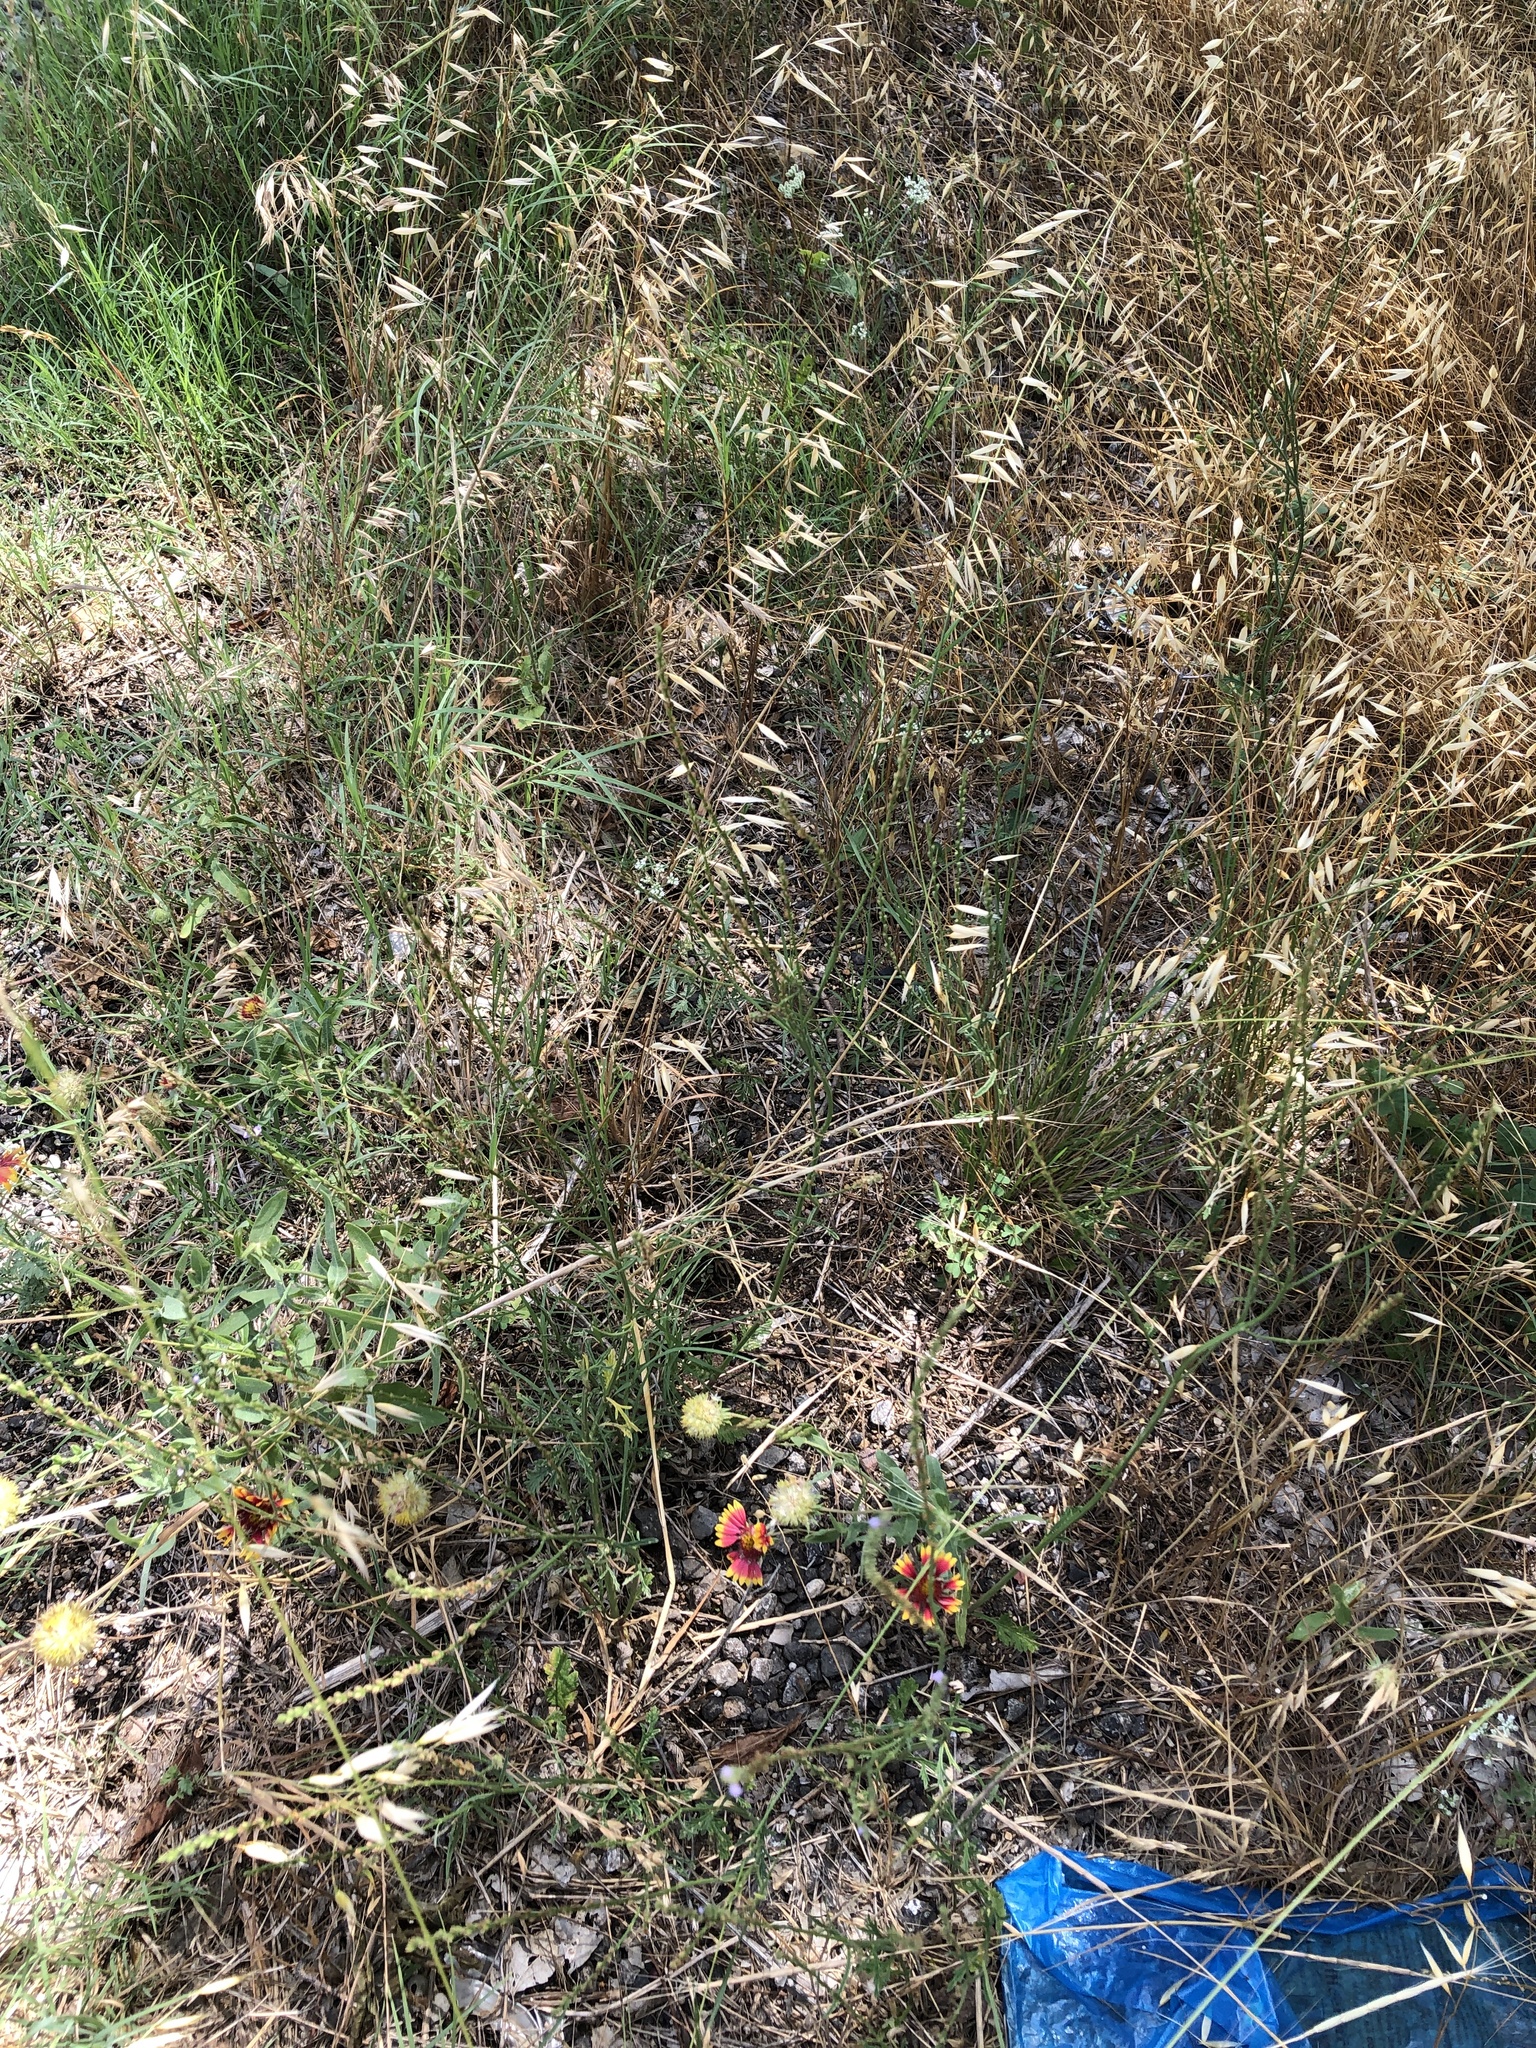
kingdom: Plantae
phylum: Tracheophyta
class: Magnoliopsida
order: Lamiales
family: Verbenaceae
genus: Verbena
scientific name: Verbena halei
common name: Texas vervain
